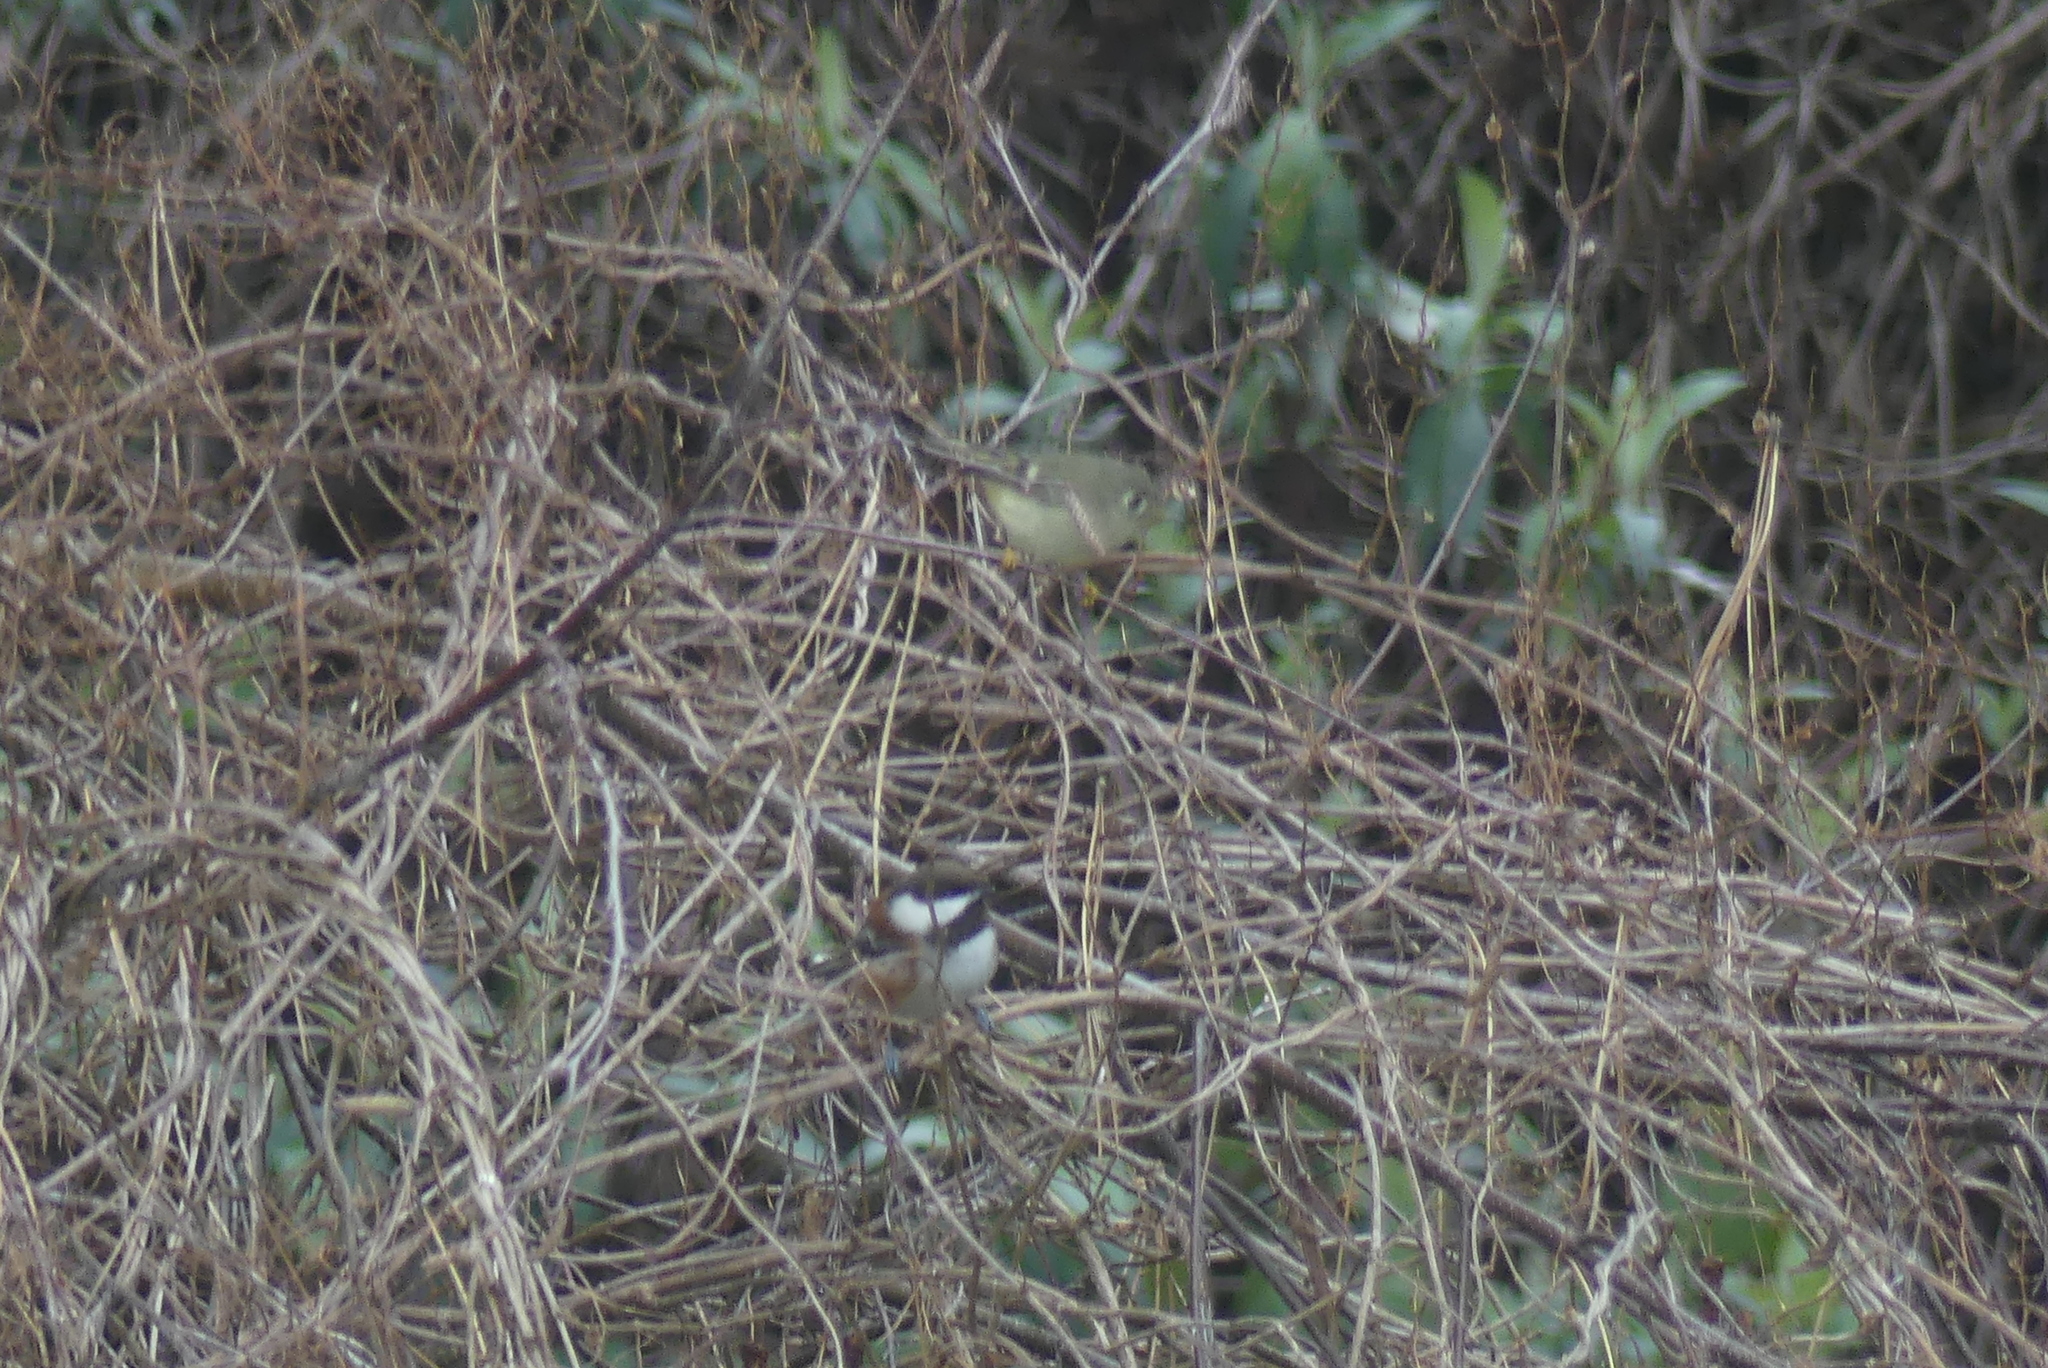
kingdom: Animalia
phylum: Chordata
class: Aves
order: Passeriformes
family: Regulidae
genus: Regulus
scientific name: Regulus calendula
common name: Ruby-crowned kinglet
